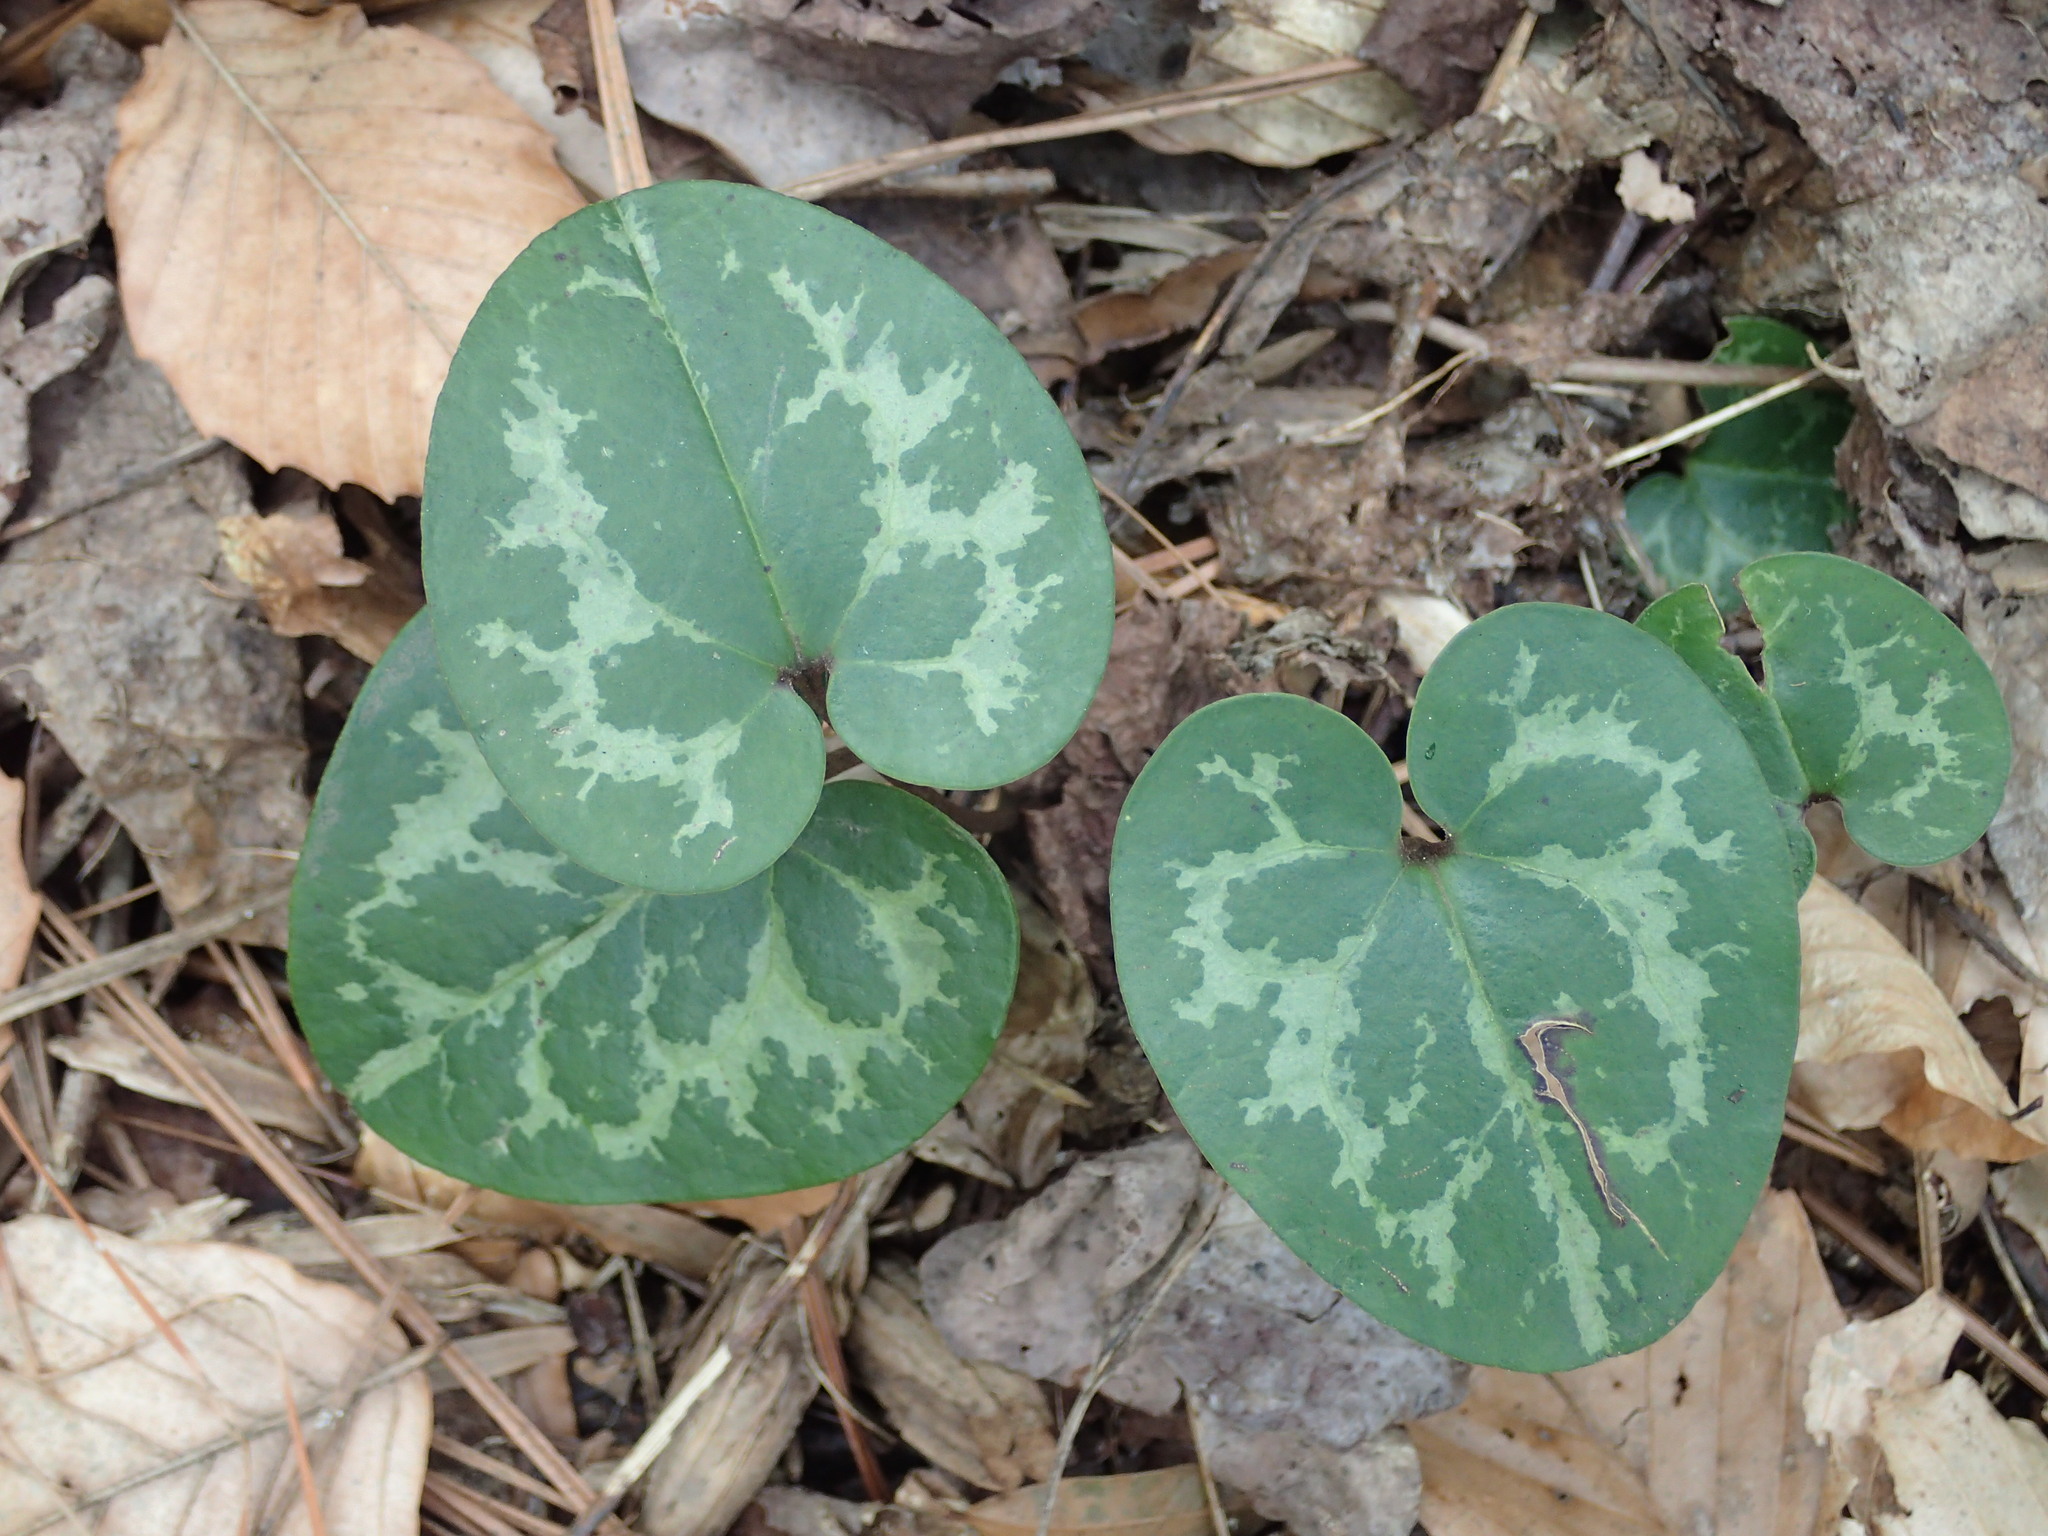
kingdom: Plantae
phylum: Tracheophyta
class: Magnoliopsida
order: Piperales
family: Aristolochiaceae
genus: Hexastylis
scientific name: Hexastylis harperi
